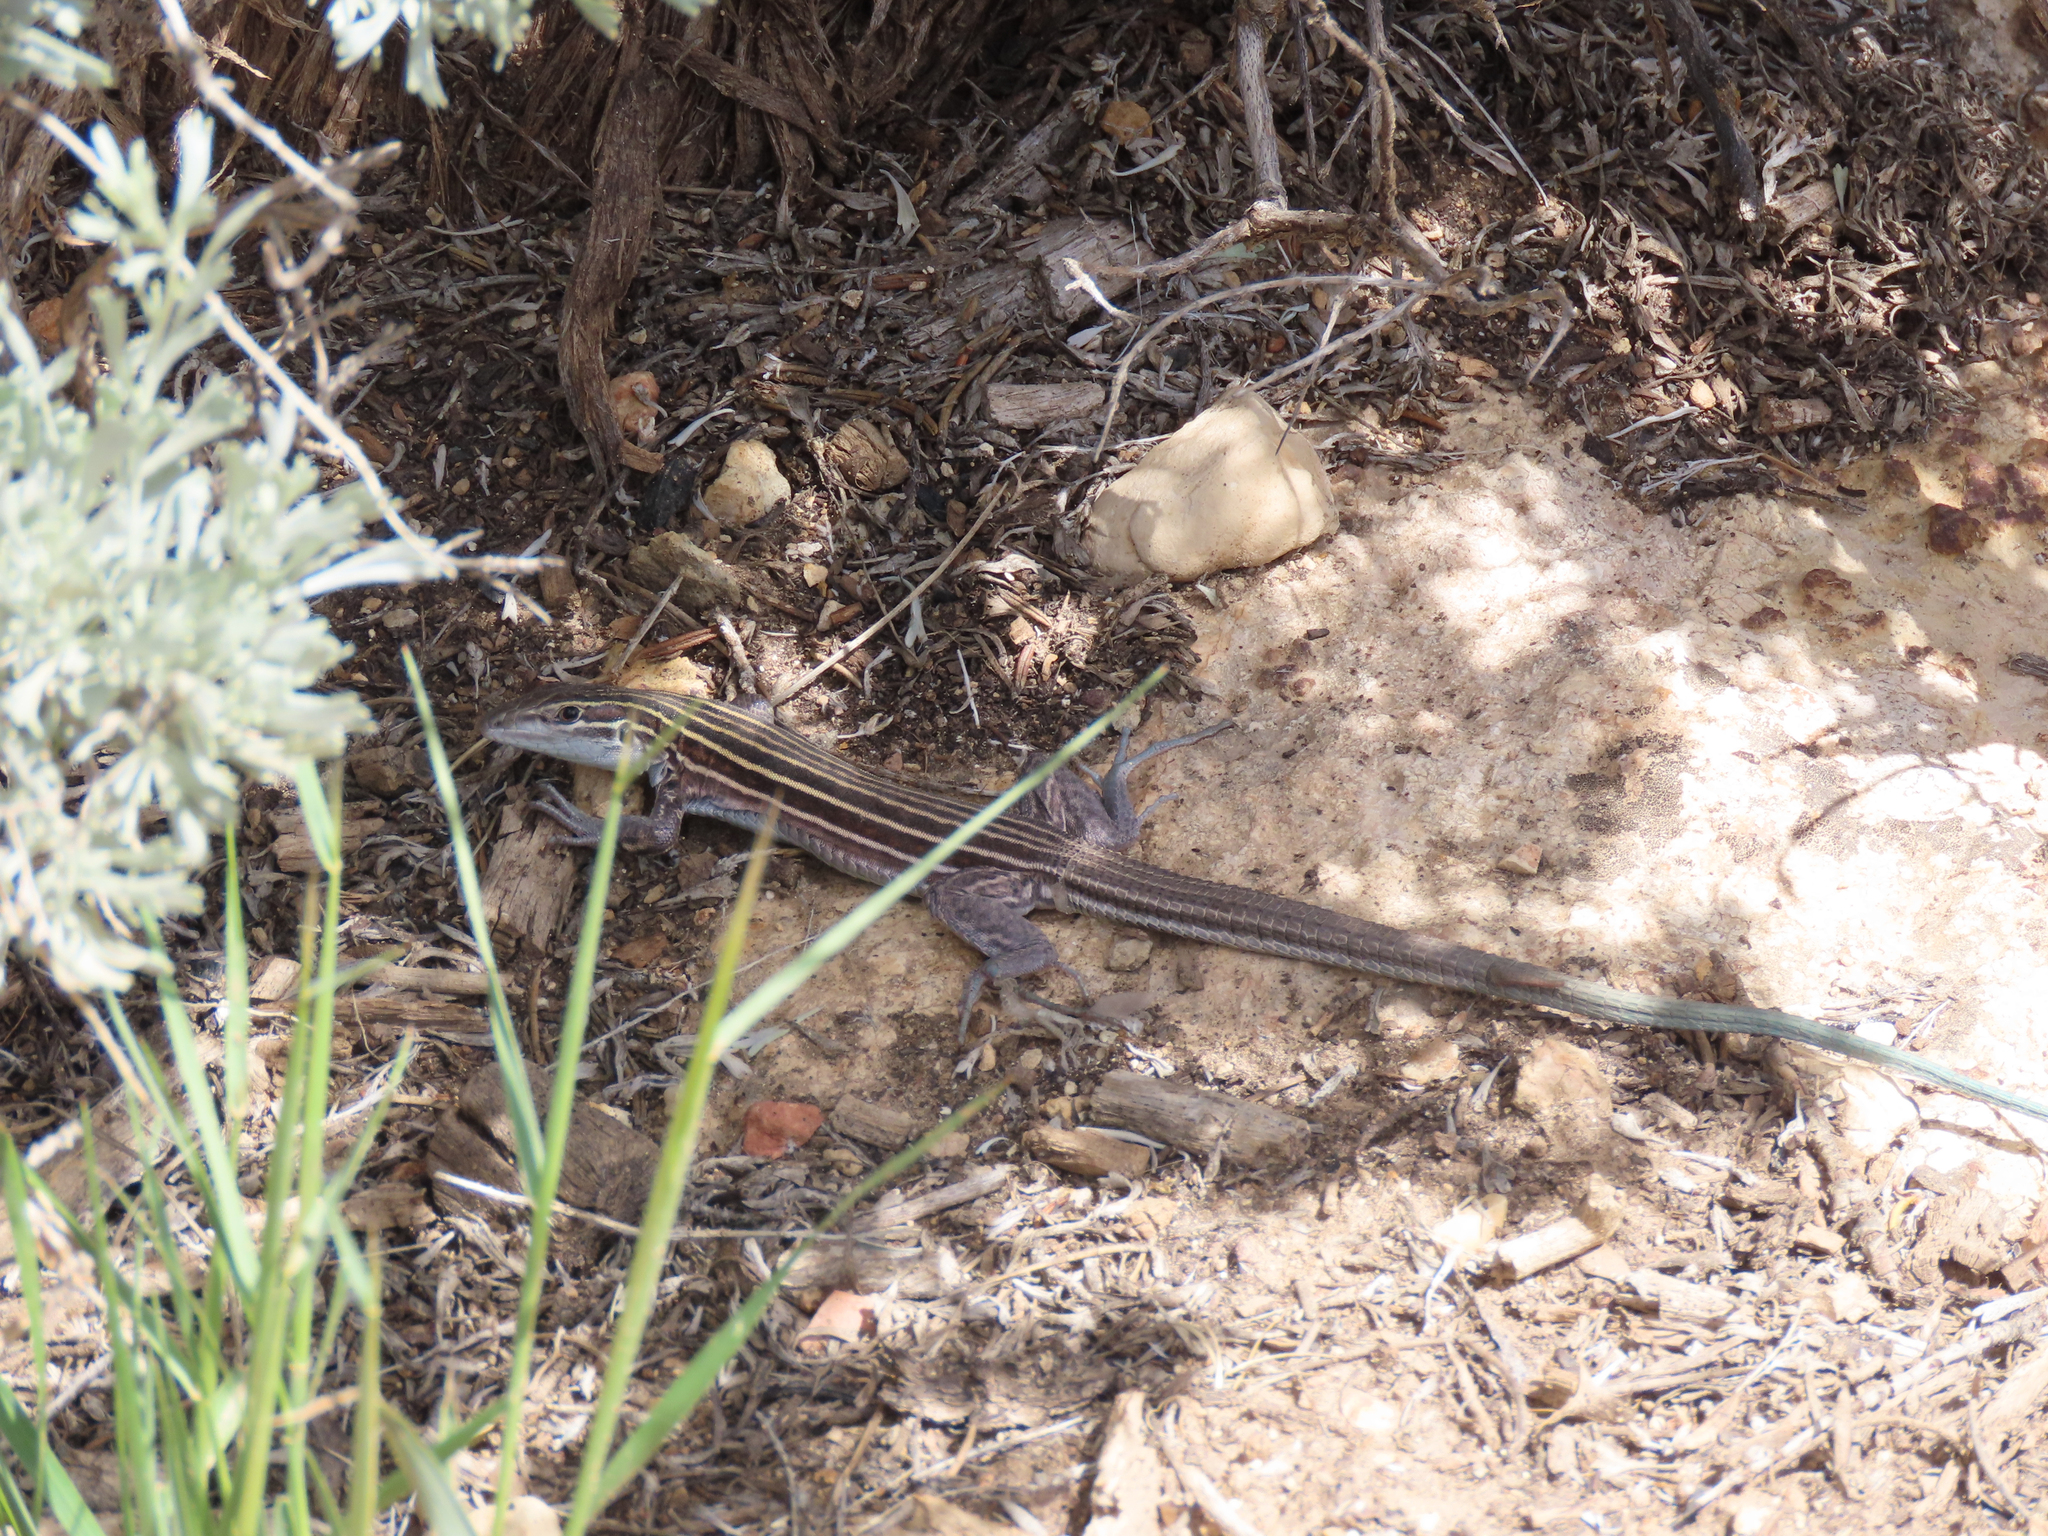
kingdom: Animalia
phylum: Chordata
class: Squamata
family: Teiidae
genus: Aspidoscelis
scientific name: Aspidoscelis velox
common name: Plateau striped whiptail
